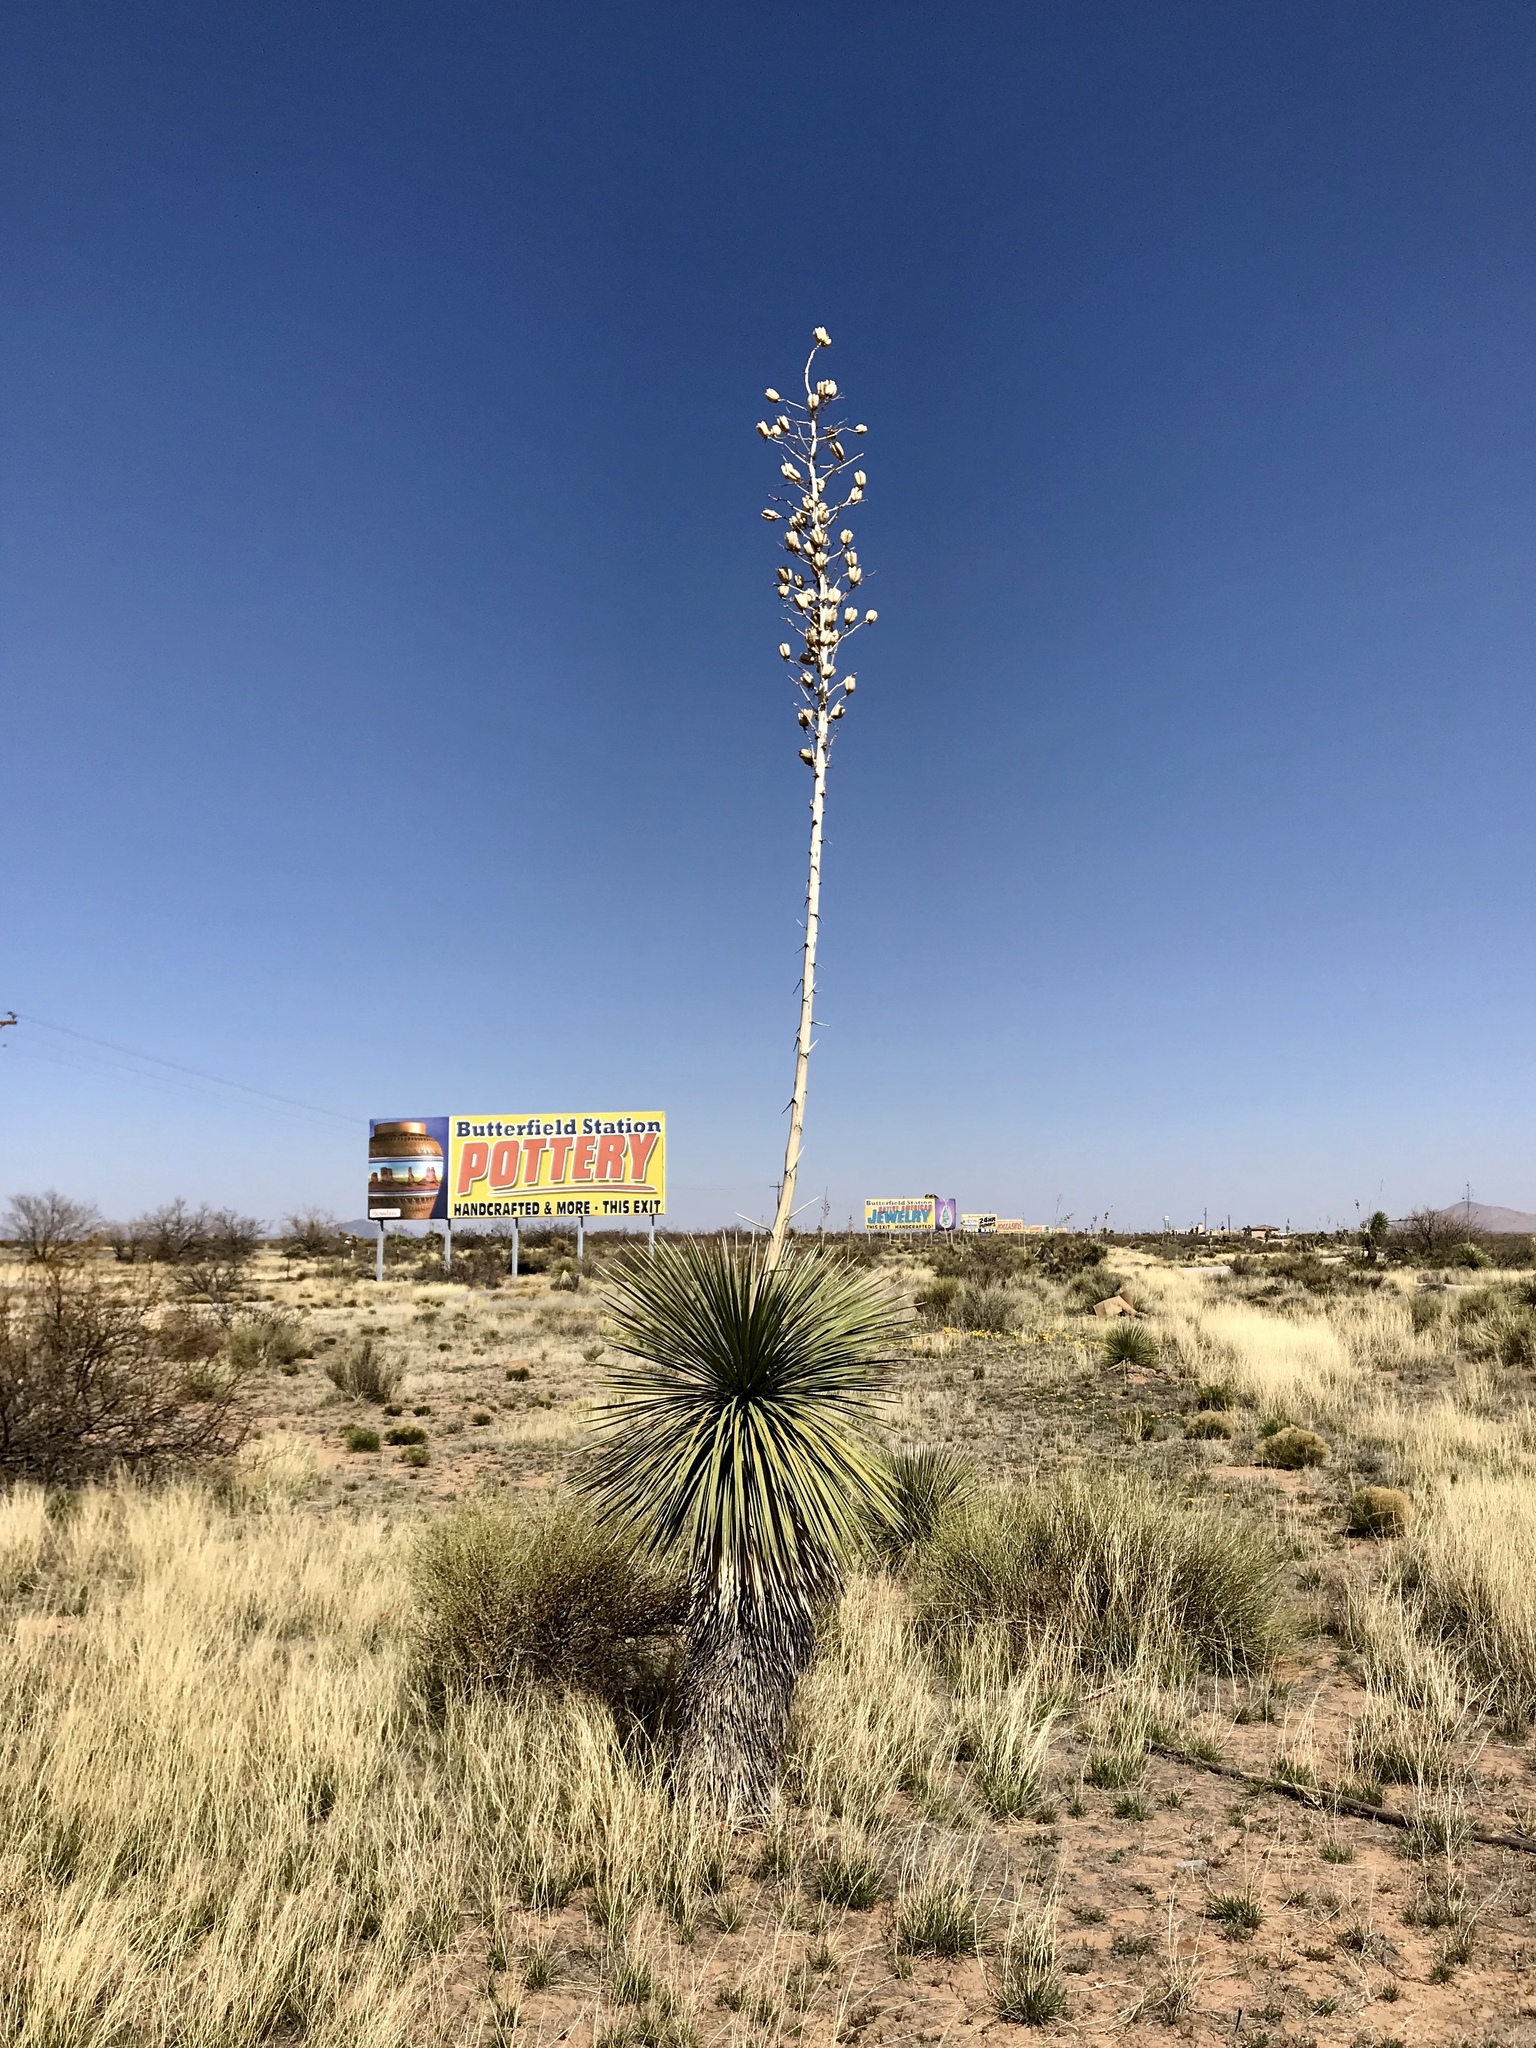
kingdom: Plantae
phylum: Tracheophyta
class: Liliopsida
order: Asparagales
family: Asparagaceae
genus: Yucca
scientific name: Yucca elata
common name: Palmella
